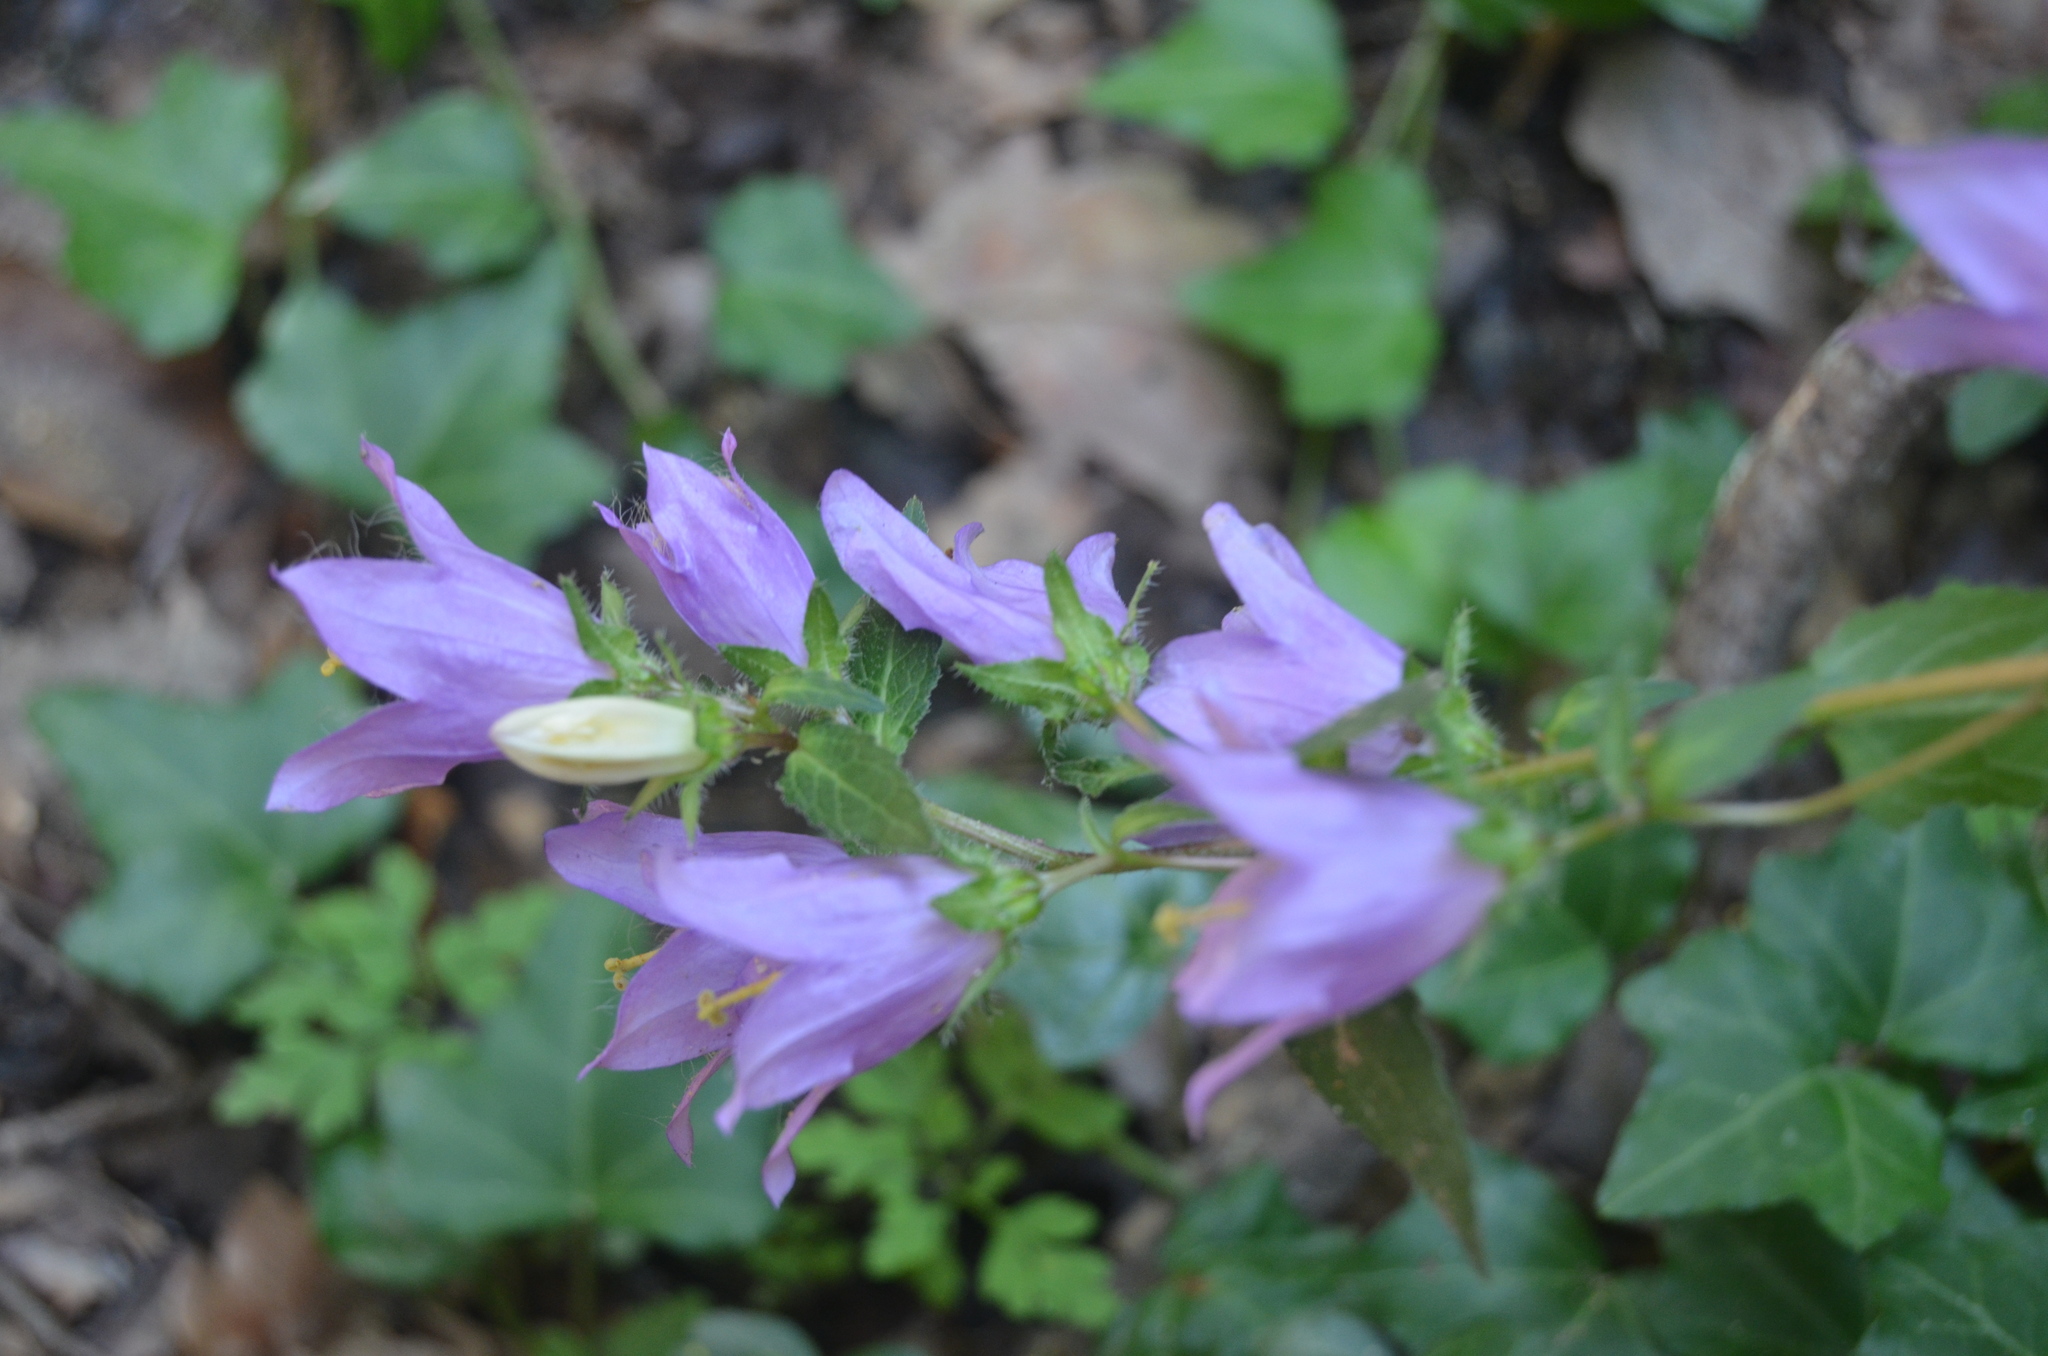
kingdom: Plantae
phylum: Tracheophyta
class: Magnoliopsida
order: Asterales
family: Campanulaceae
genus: Campanula
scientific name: Campanula trachelium
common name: Nettle-leaved bellflower
